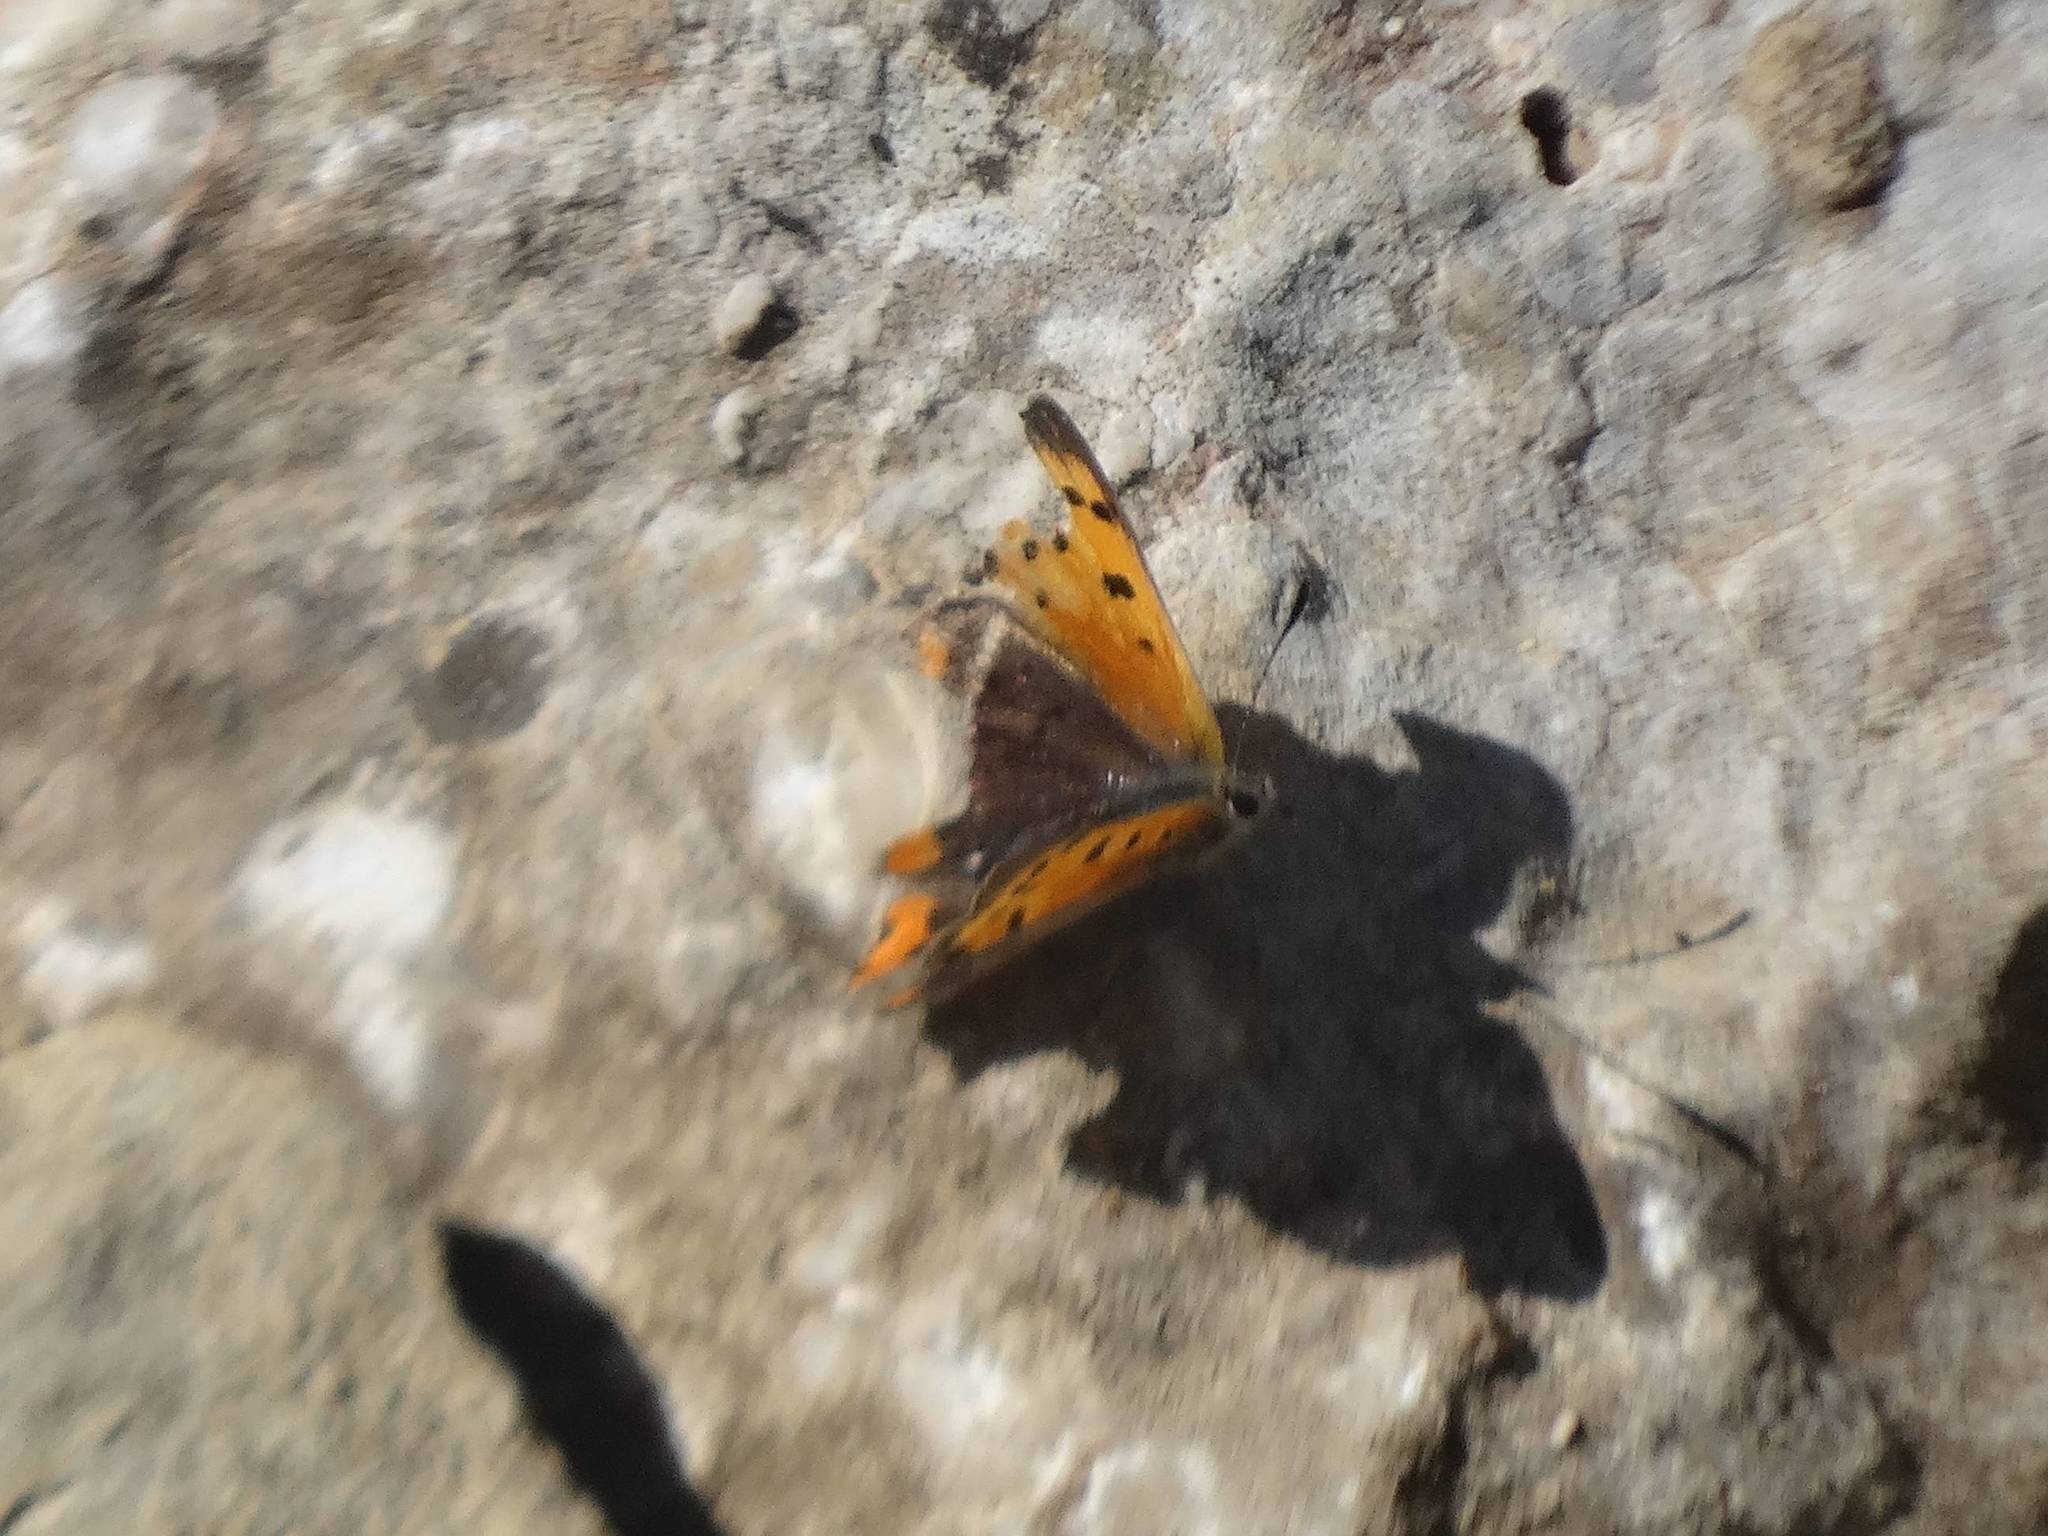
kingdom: Animalia
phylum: Arthropoda
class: Insecta
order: Lepidoptera
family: Lycaenidae
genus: Lycaena
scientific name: Lycaena phlaeas
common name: Small copper
